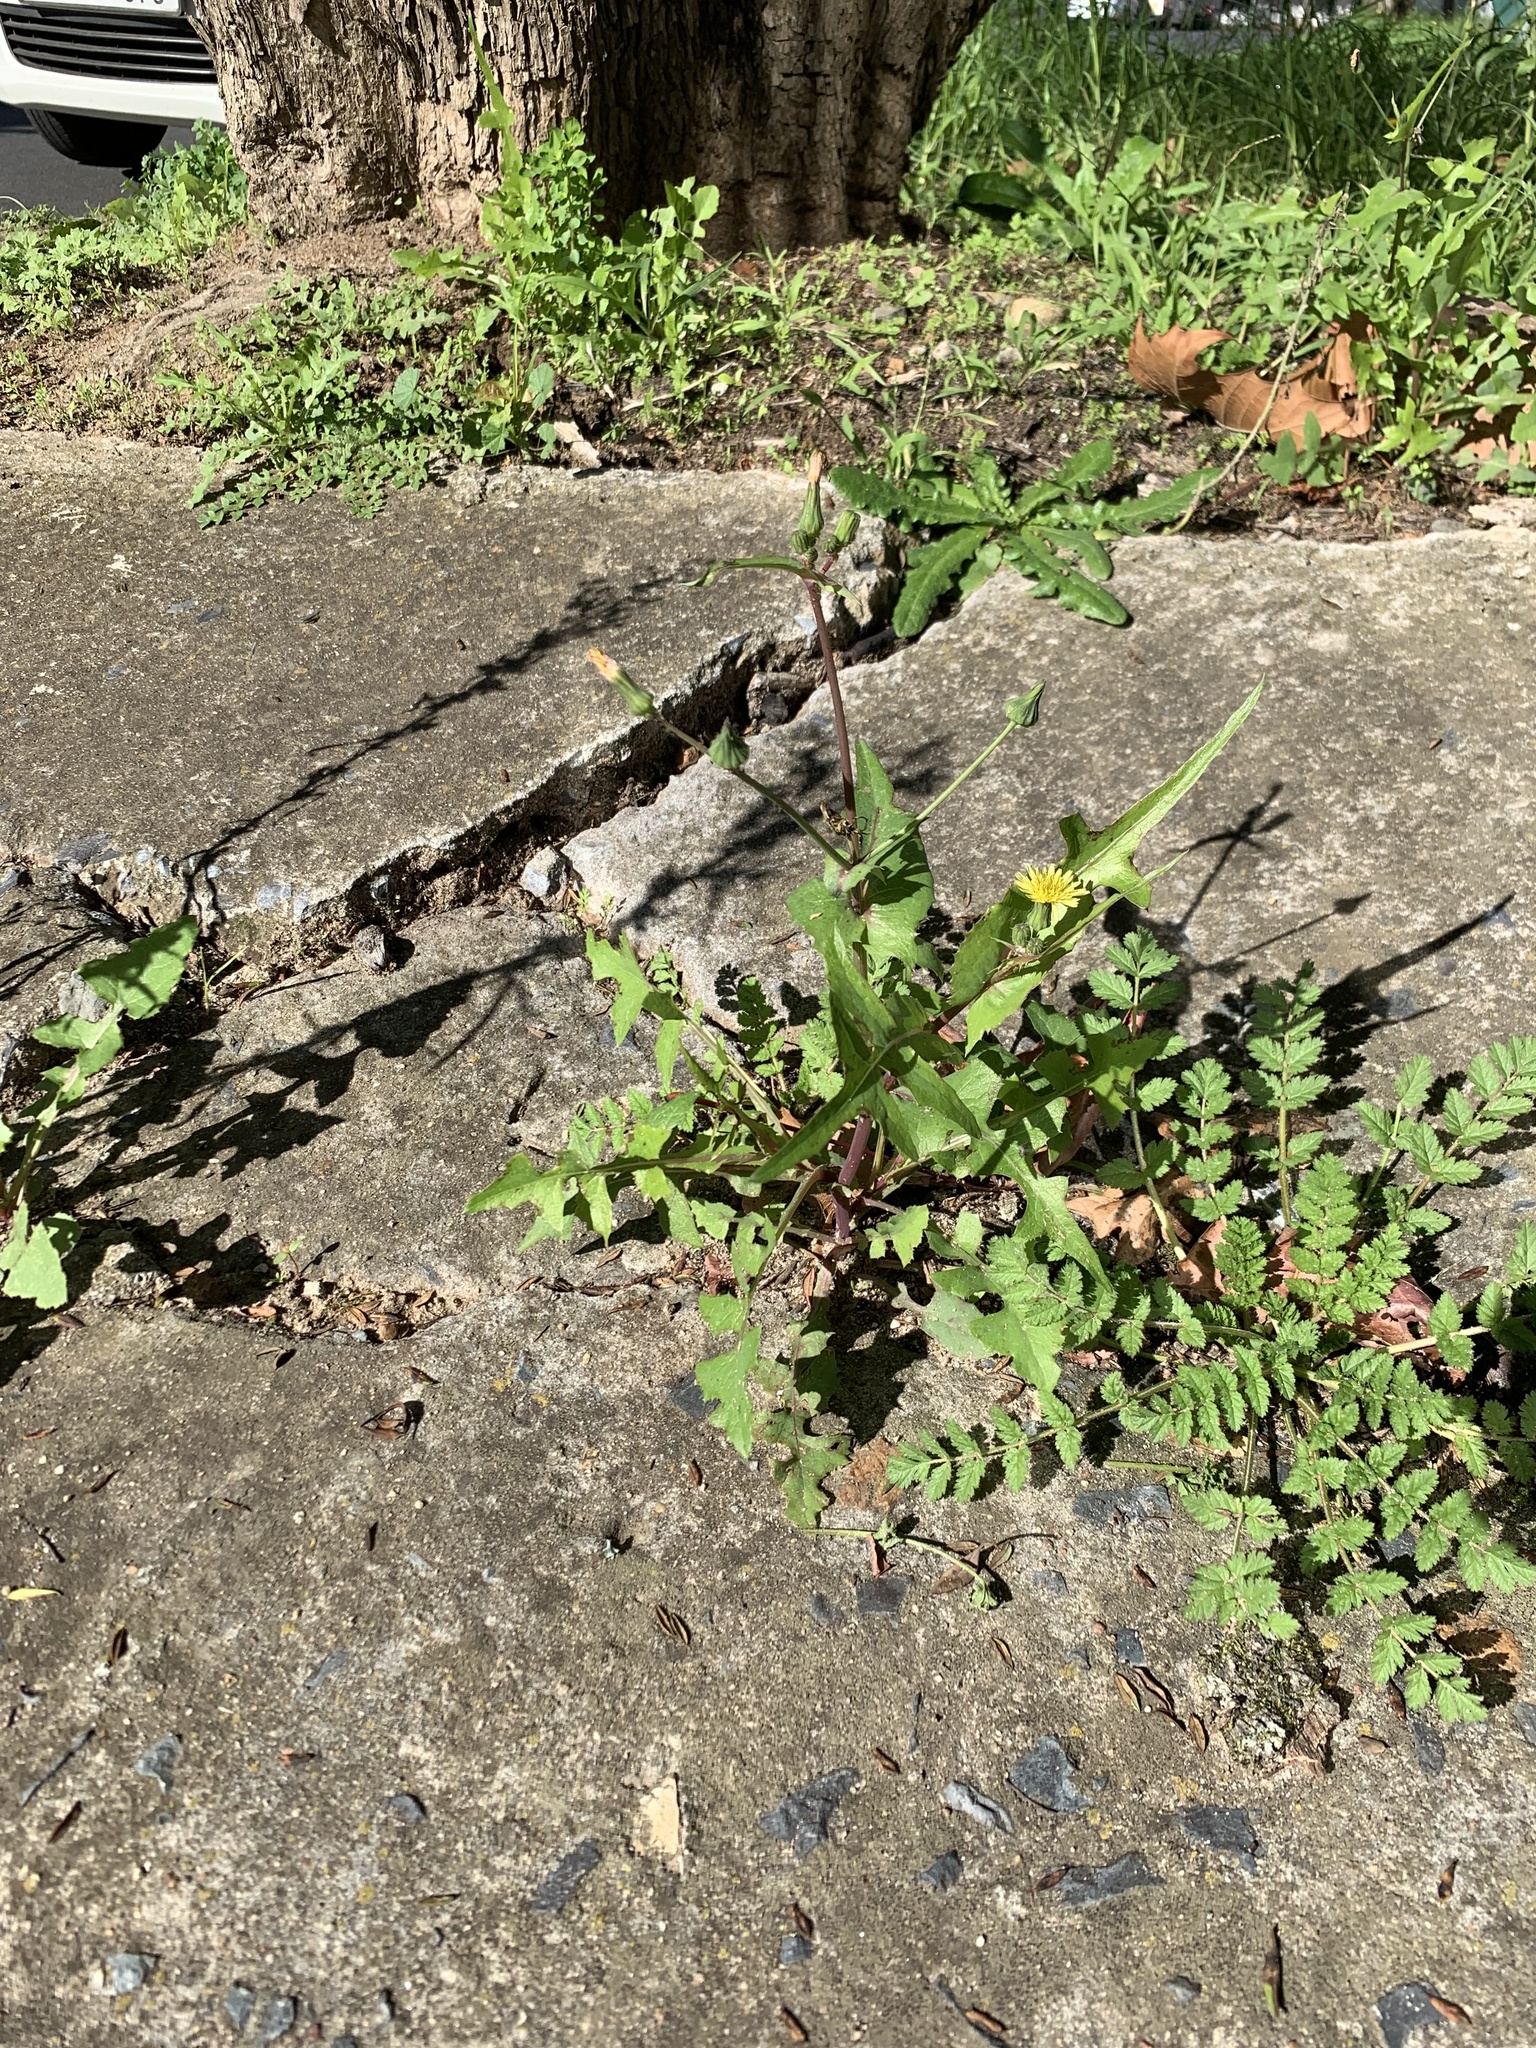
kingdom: Plantae
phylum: Tracheophyta
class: Magnoliopsida
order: Asterales
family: Asteraceae
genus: Sonchus
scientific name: Sonchus oleraceus
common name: Common sowthistle
